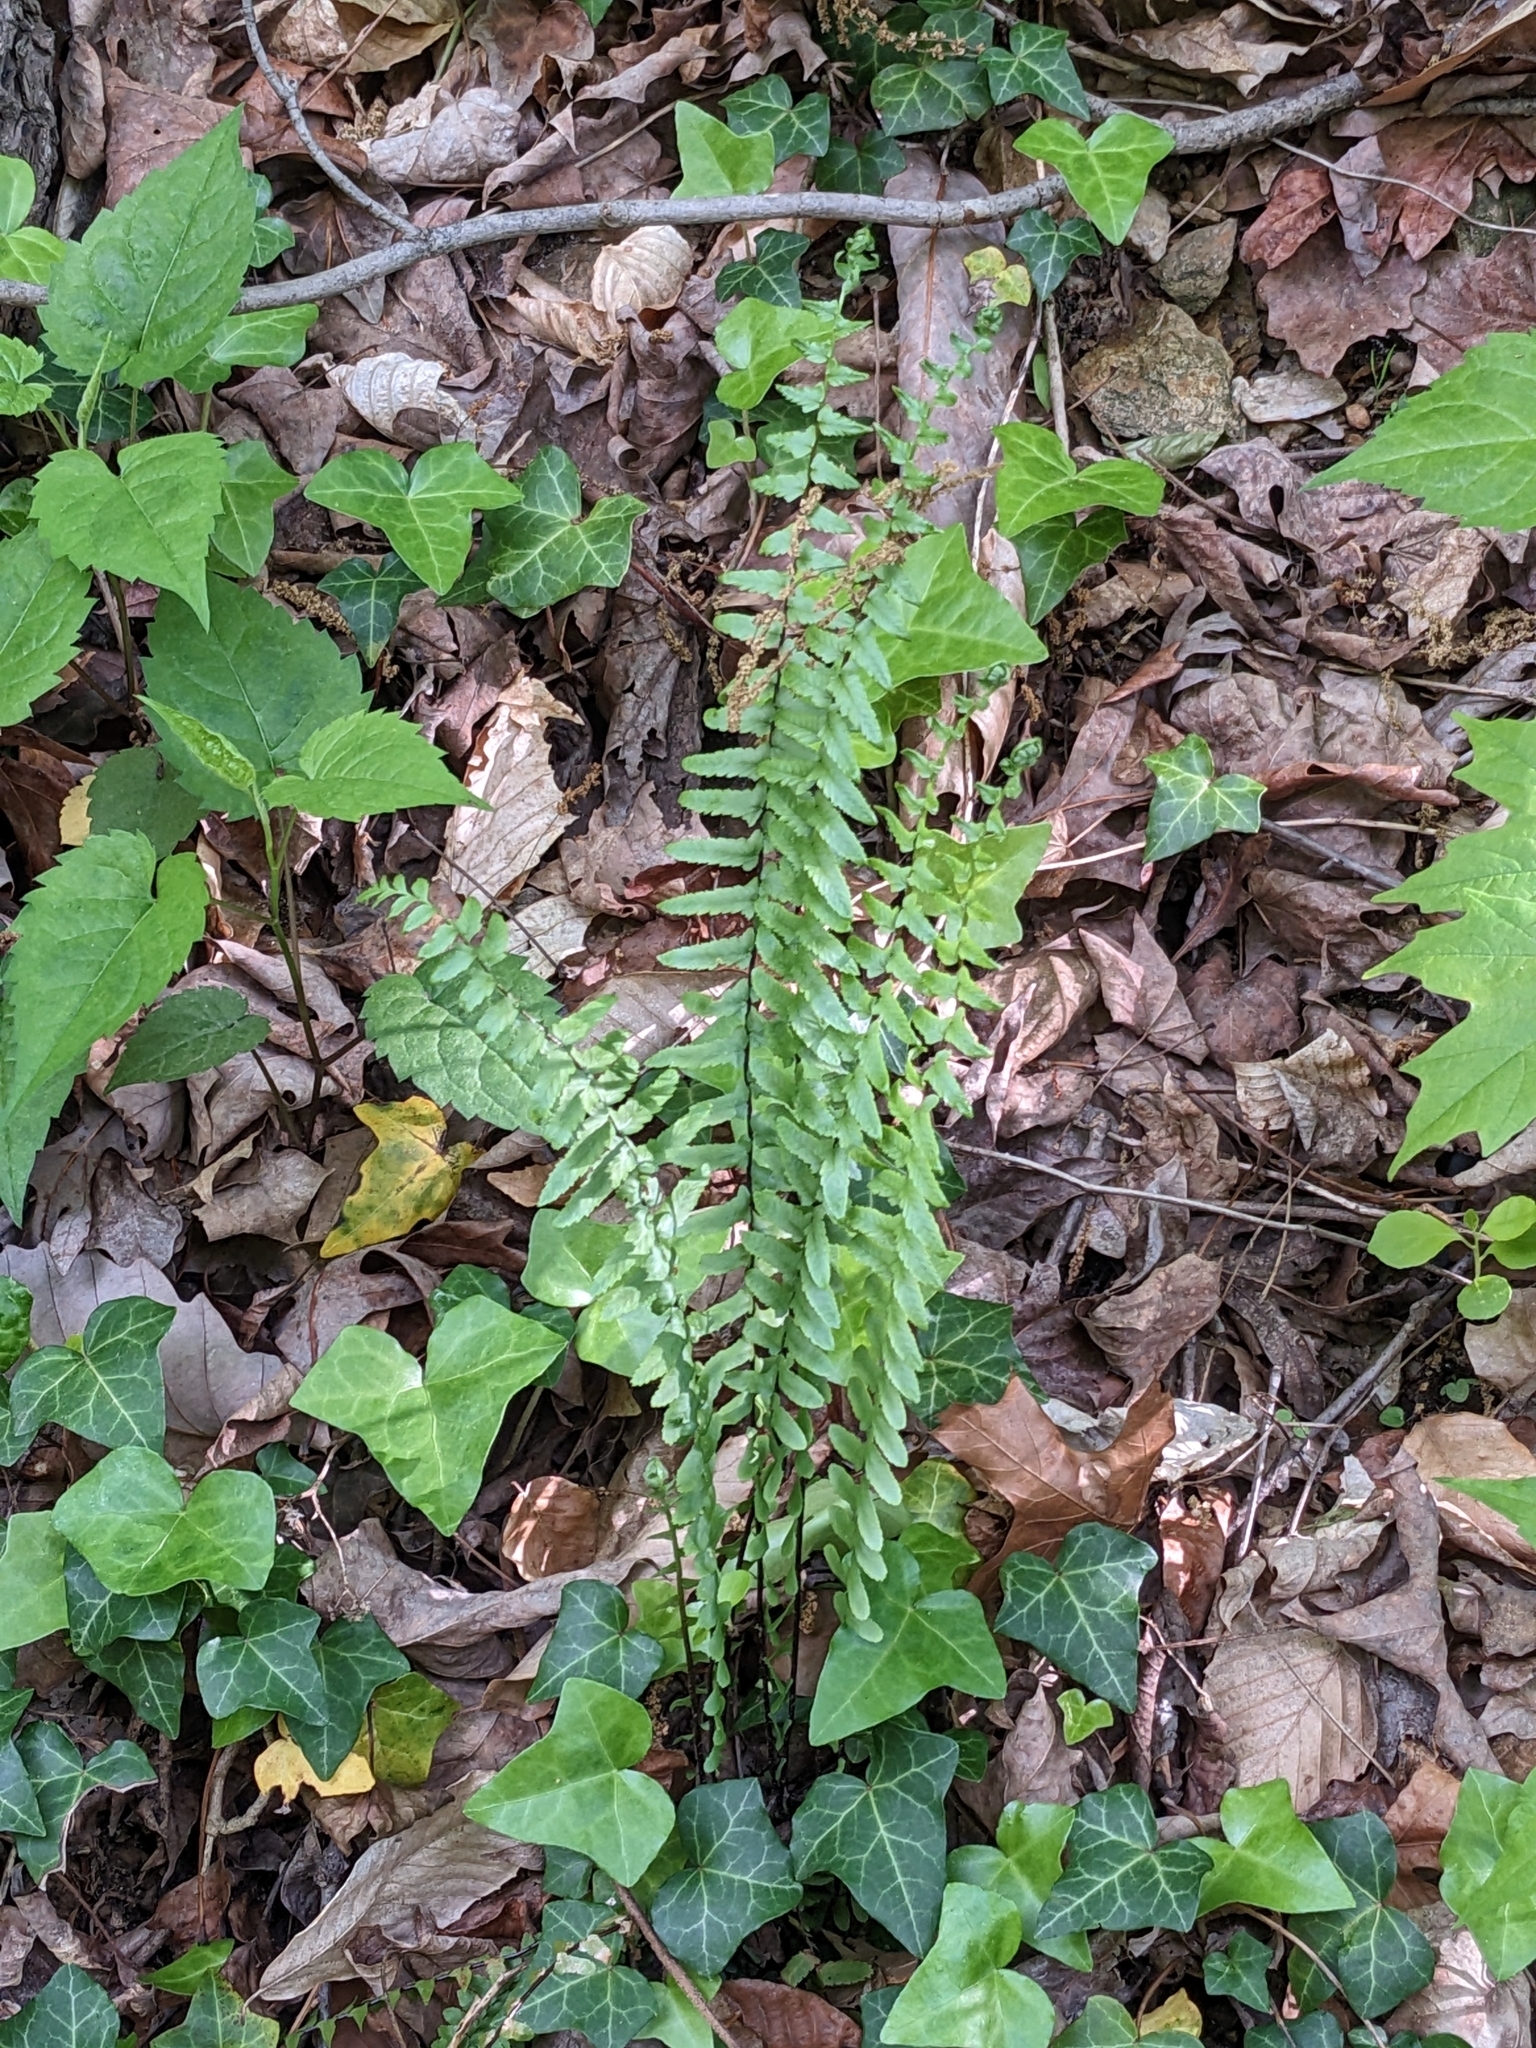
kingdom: Plantae
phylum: Tracheophyta
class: Polypodiopsida
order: Polypodiales
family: Aspleniaceae
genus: Asplenium
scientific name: Asplenium platyneuron
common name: Ebony spleenwort
